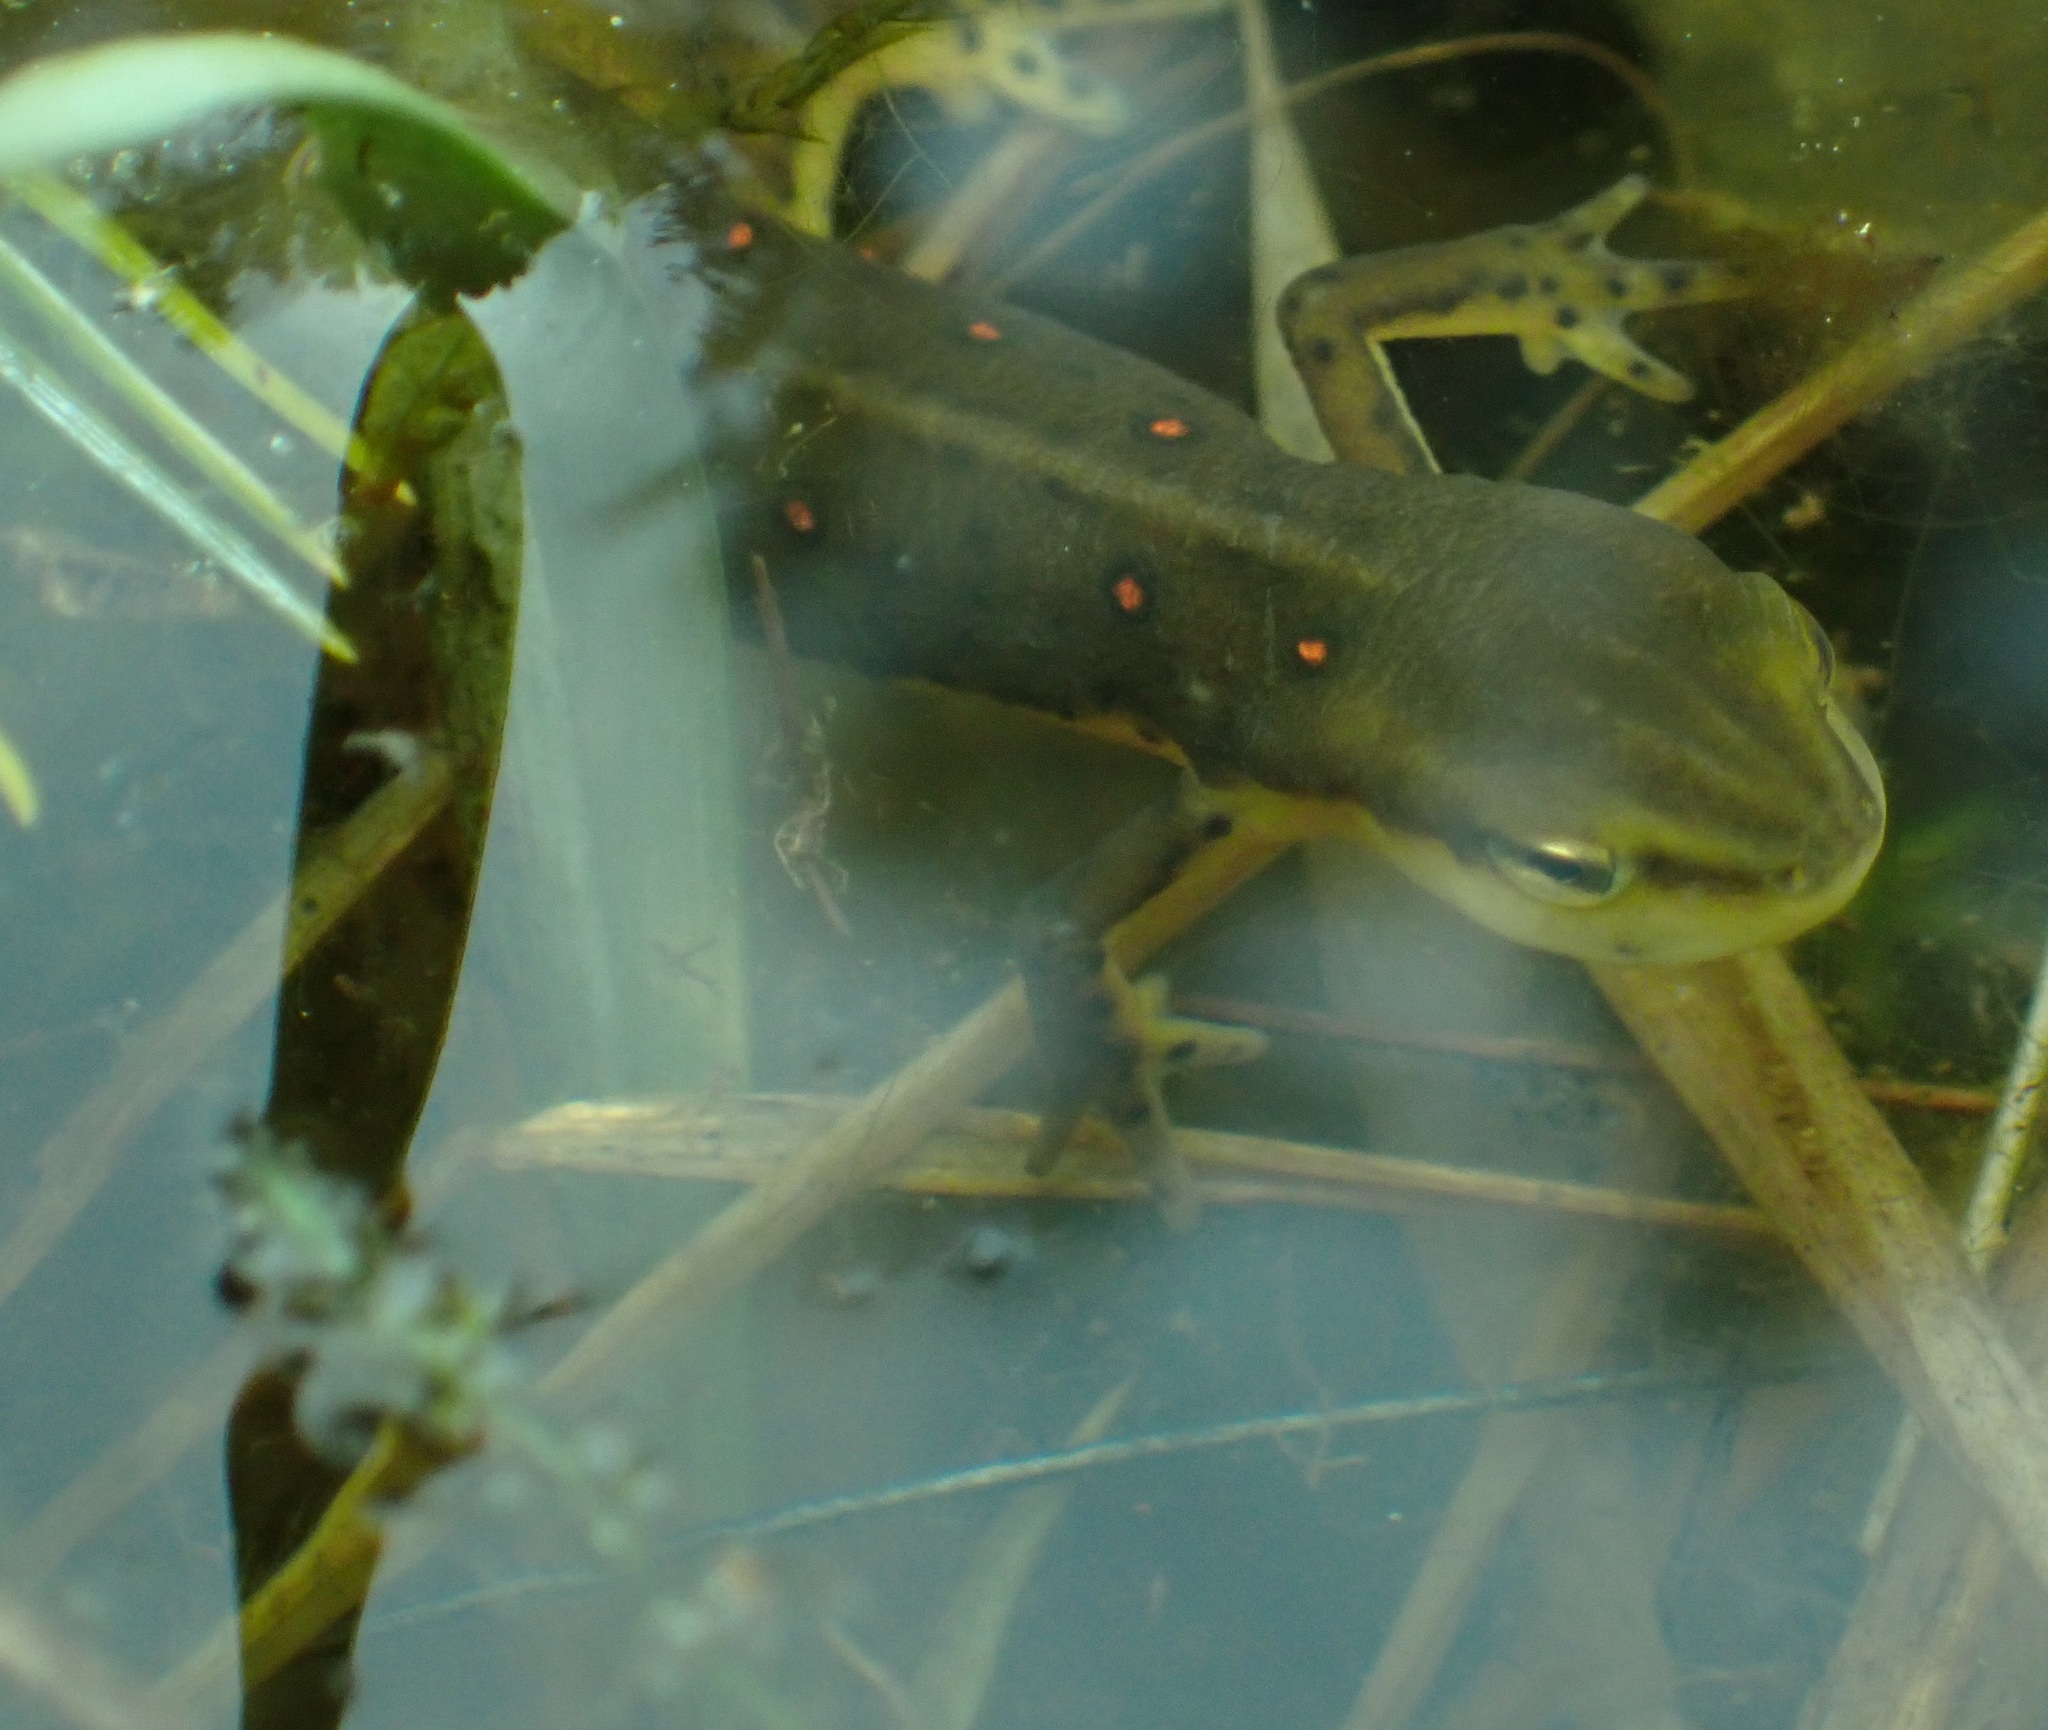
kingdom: Animalia
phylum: Chordata
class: Amphibia
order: Caudata
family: Salamandridae
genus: Notophthalmus
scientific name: Notophthalmus viridescens
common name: Eastern newt
